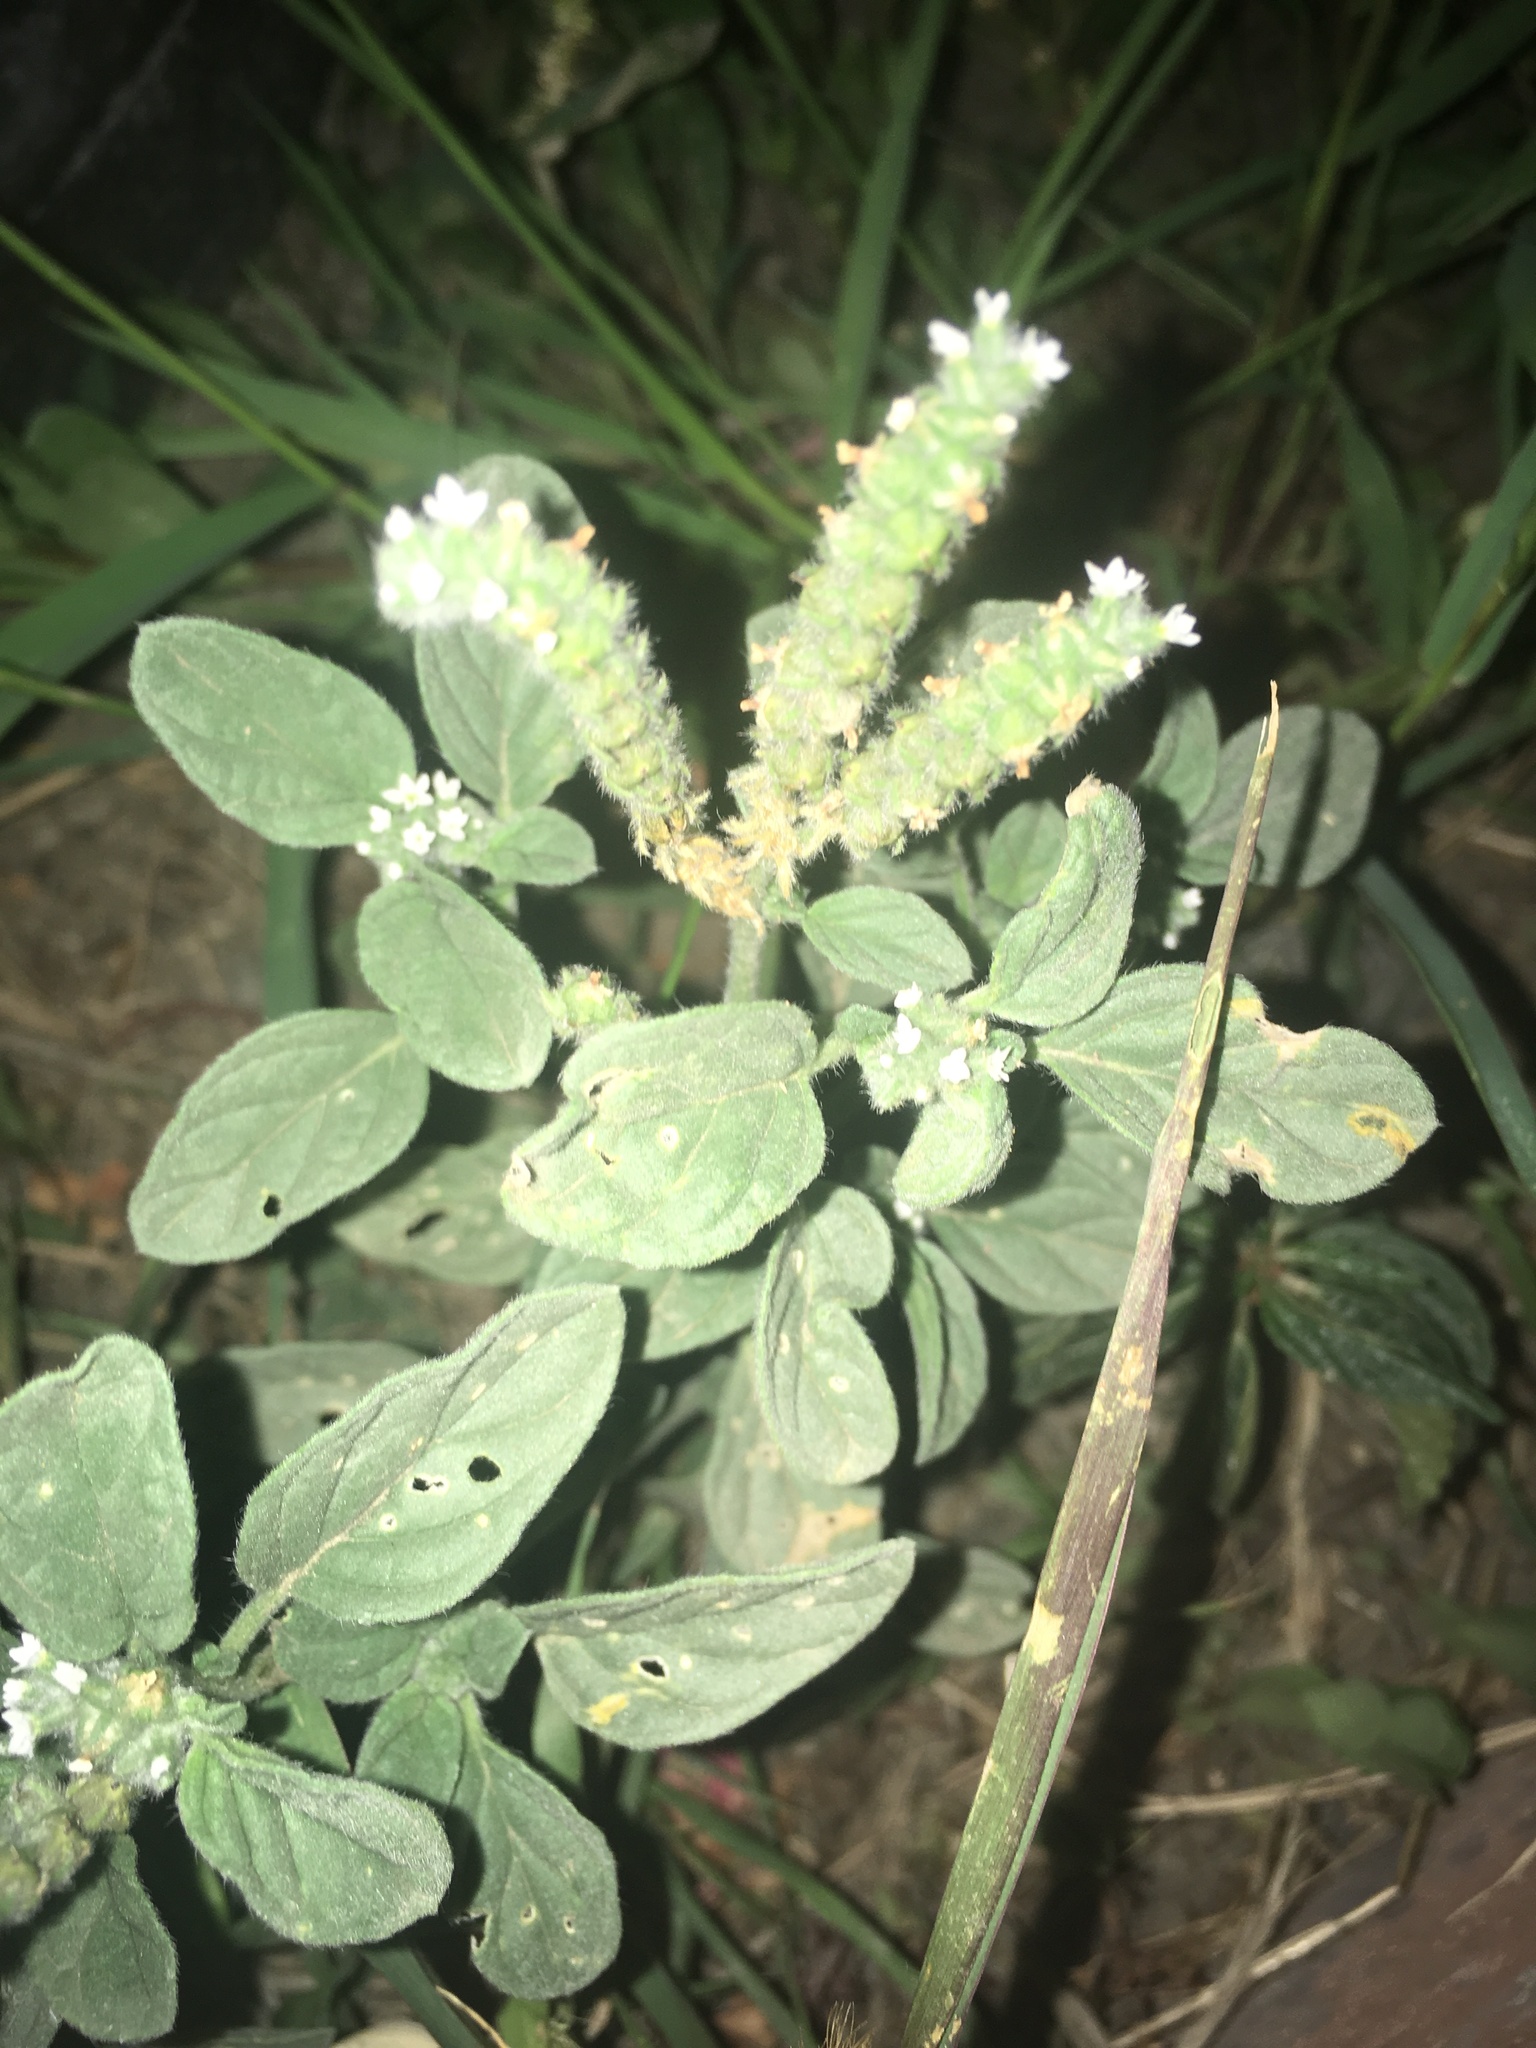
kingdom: Plantae
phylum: Tracheophyta
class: Magnoliopsida
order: Boraginales
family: Heliotropiaceae
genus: Heliotropium
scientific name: Heliotropium europaeum
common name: European heliotrope
